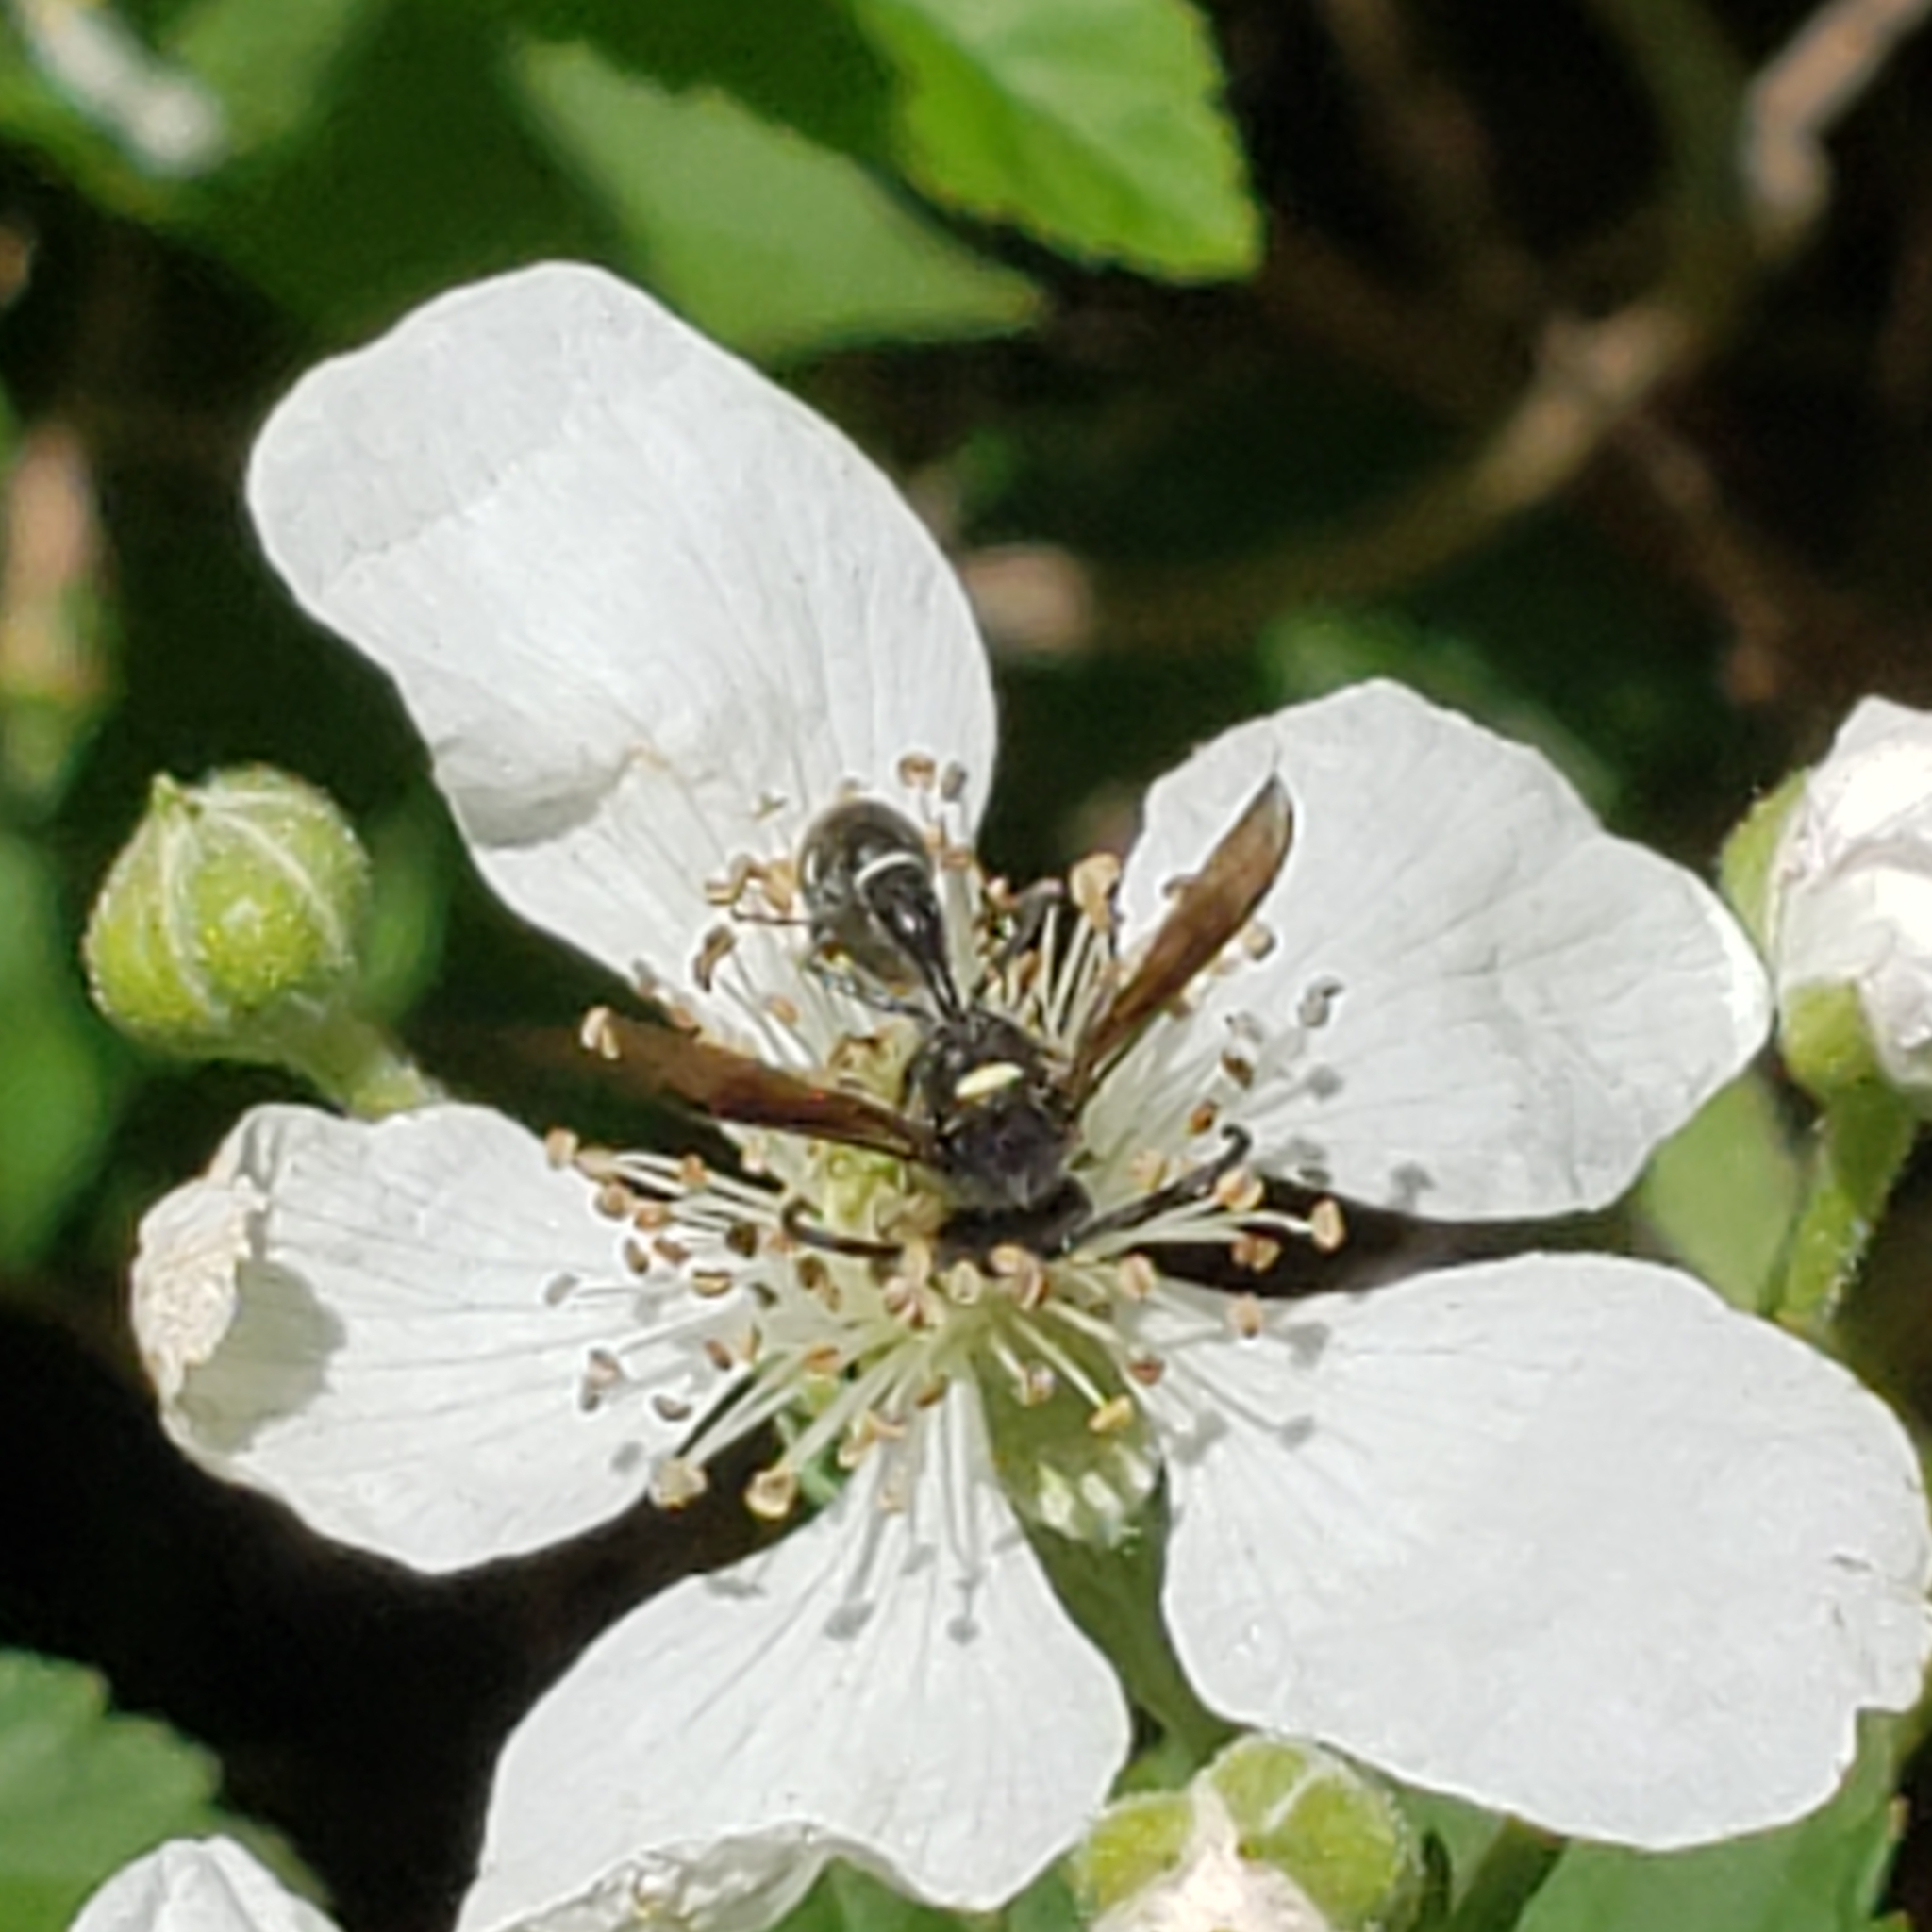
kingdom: Animalia
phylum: Arthropoda
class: Insecta
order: Hymenoptera
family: Vespidae
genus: Eumenes
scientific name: Eumenes fraternus
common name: Fraternal potter wasp
